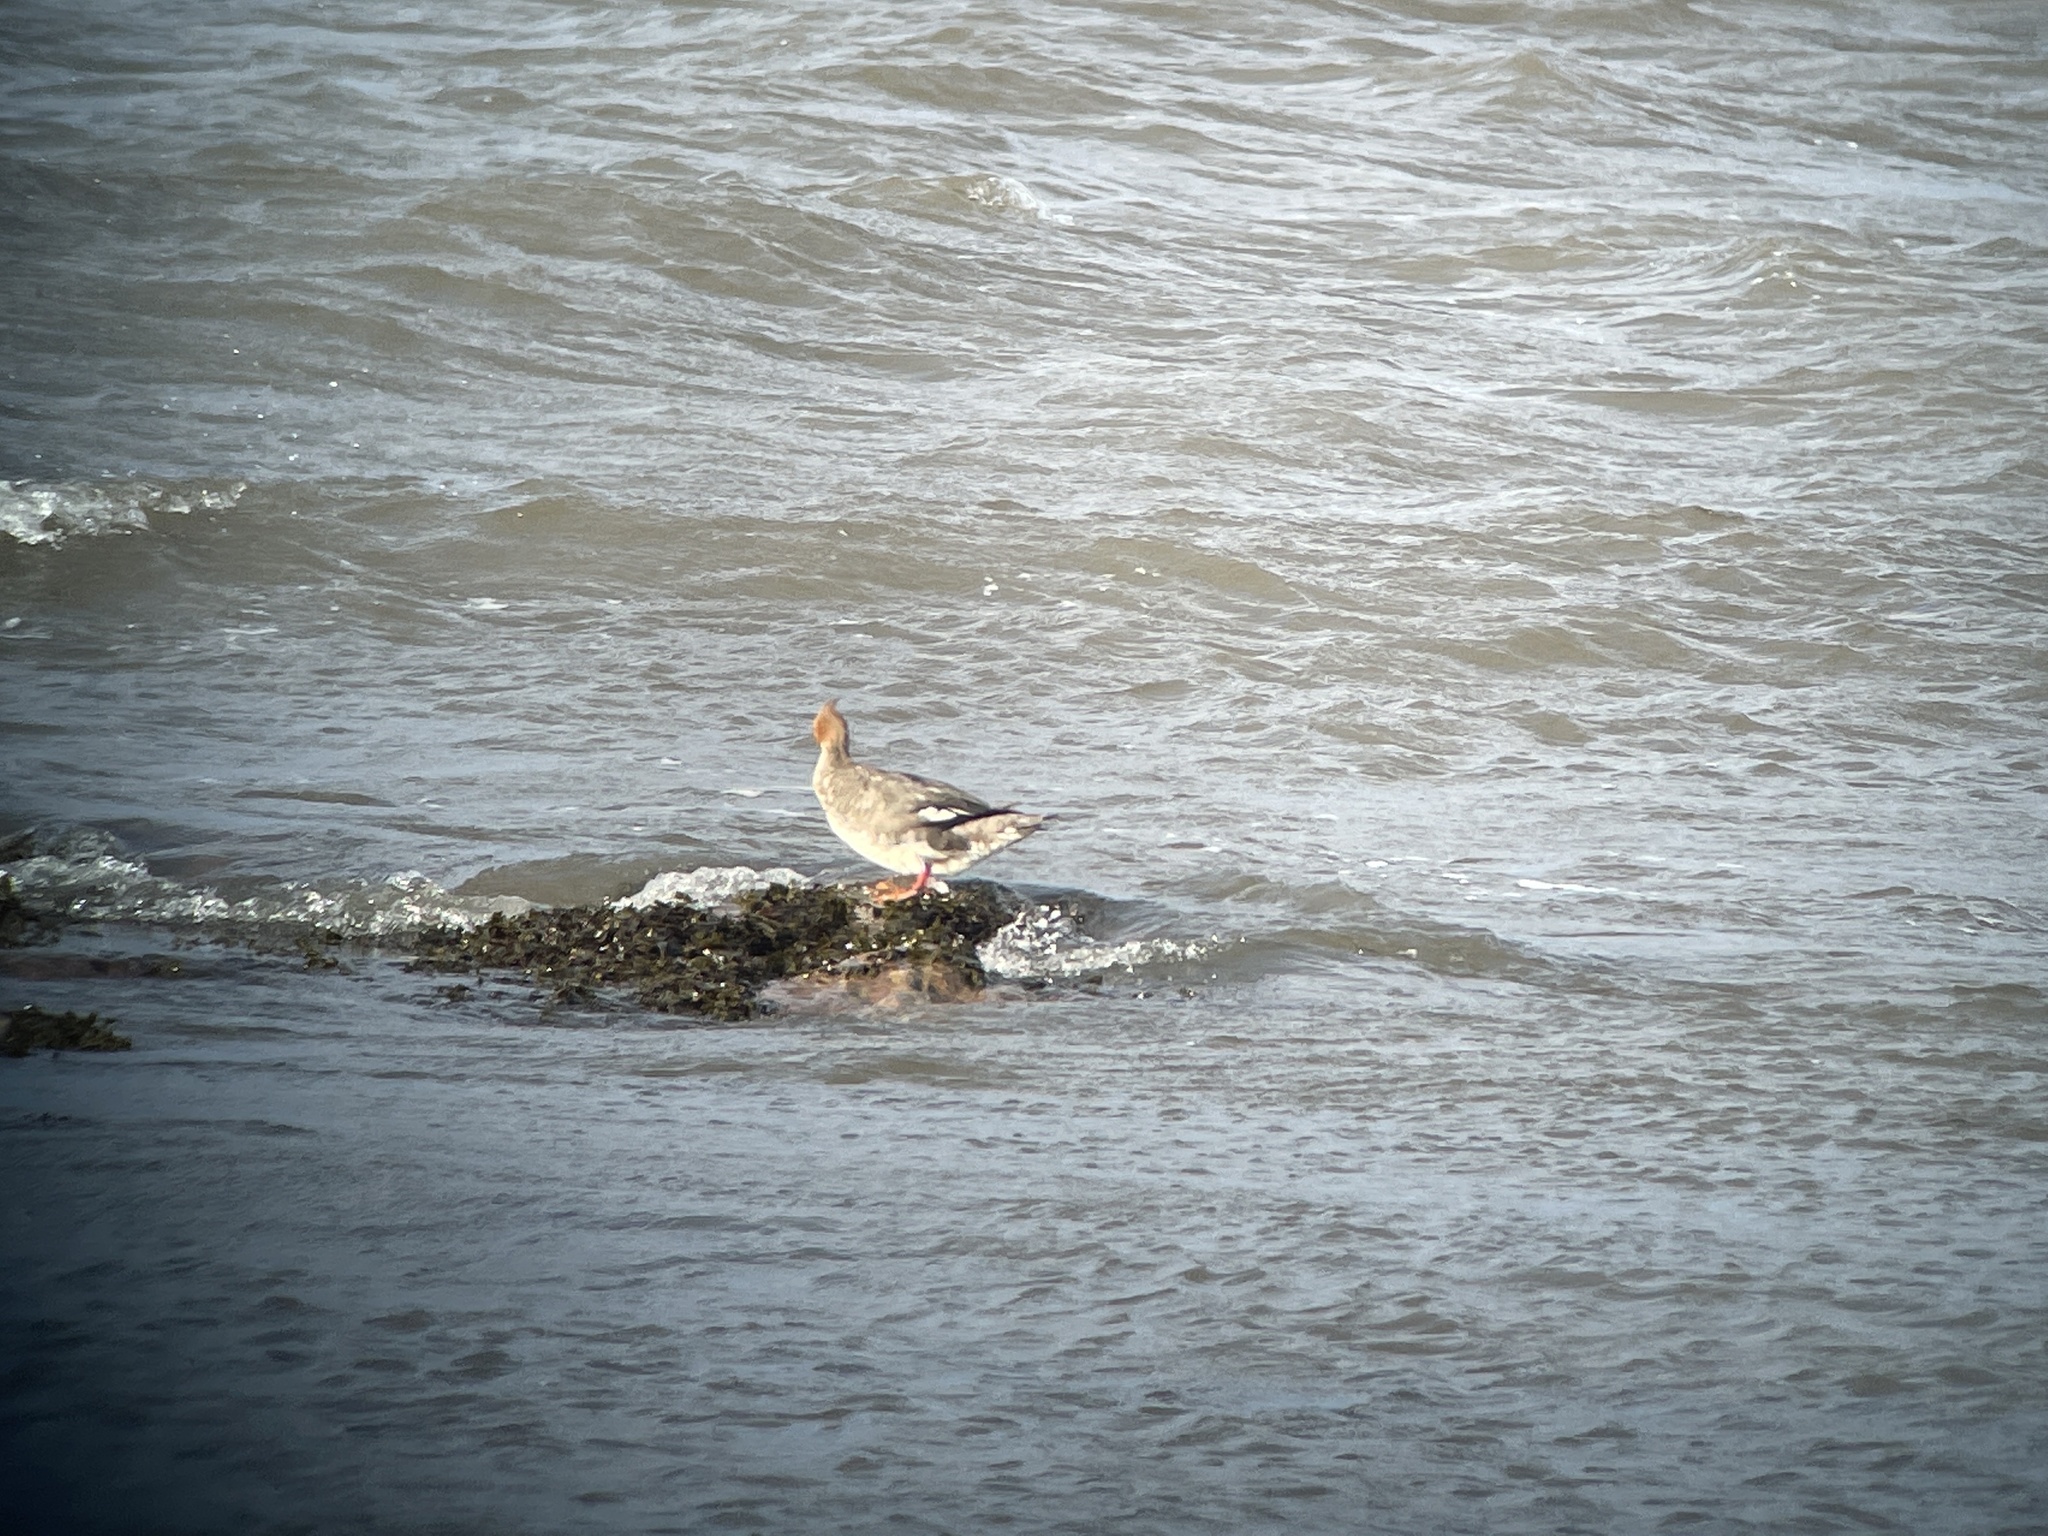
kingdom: Animalia
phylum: Chordata
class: Aves
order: Anseriformes
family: Anatidae
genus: Mergus
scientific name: Mergus serrator
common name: Red-breasted merganser
